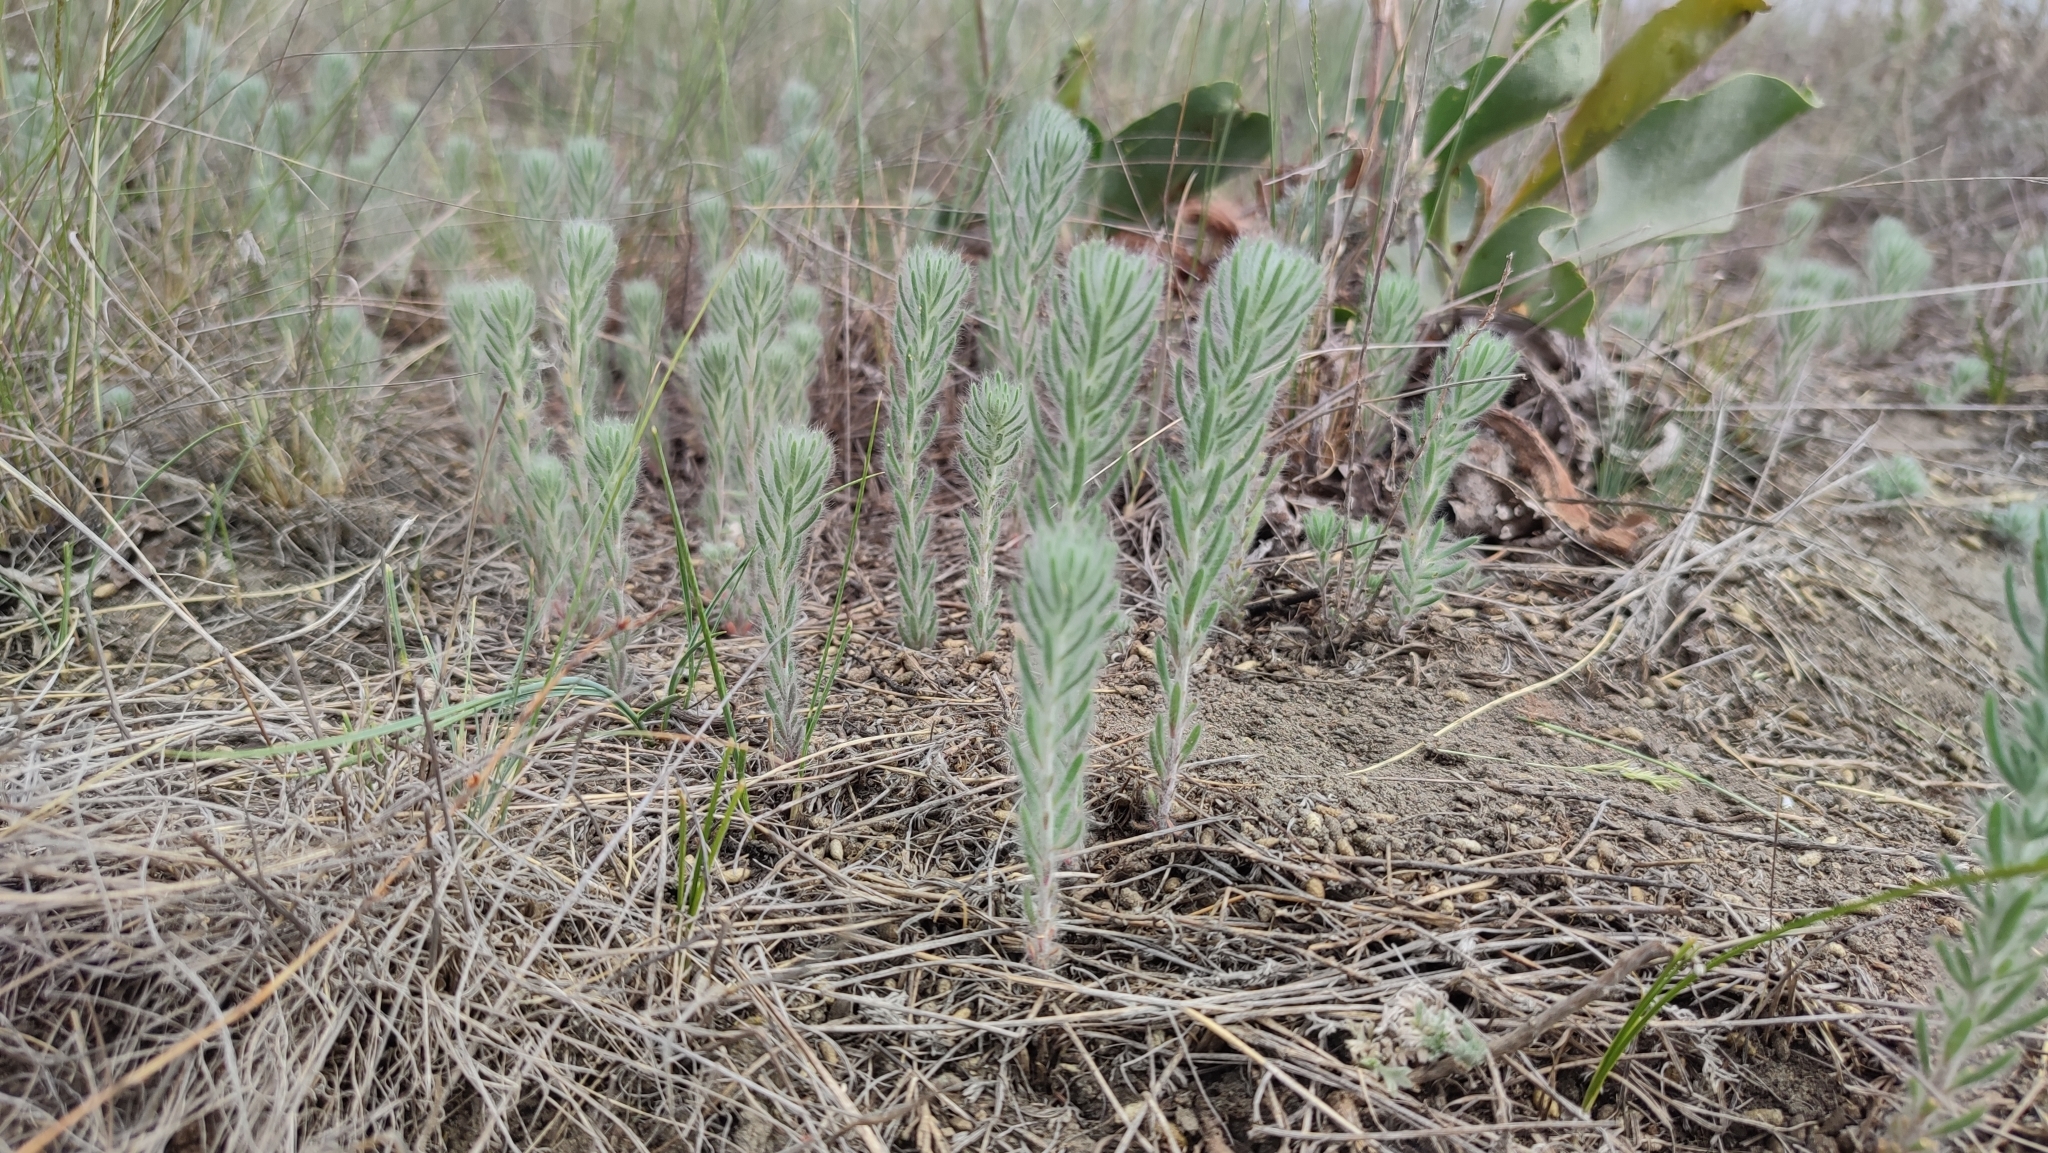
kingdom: Plantae
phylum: Tracheophyta
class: Magnoliopsida
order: Caryophyllales
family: Amaranthaceae
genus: Sedobassia
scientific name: Sedobassia sedoides
